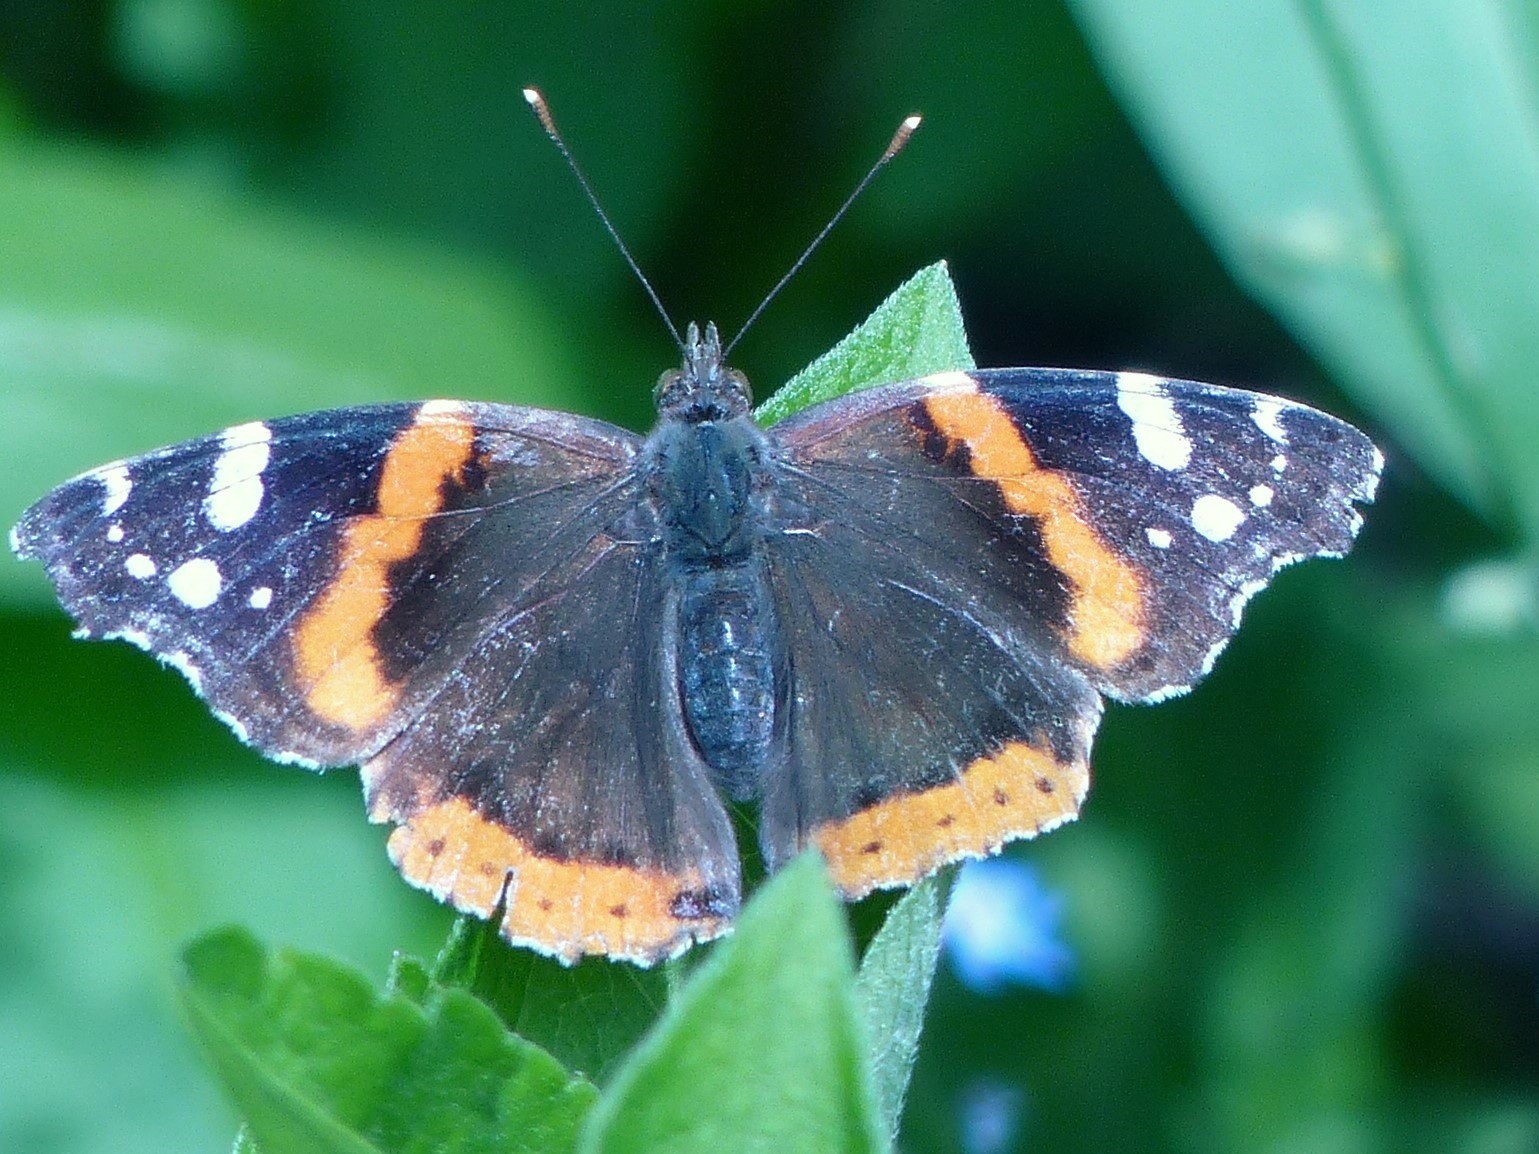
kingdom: Animalia
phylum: Arthropoda
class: Insecta
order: Lepidoptera
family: Nymphalidae
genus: Vanessa
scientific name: Vanessa atalanta
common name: Red admiral
